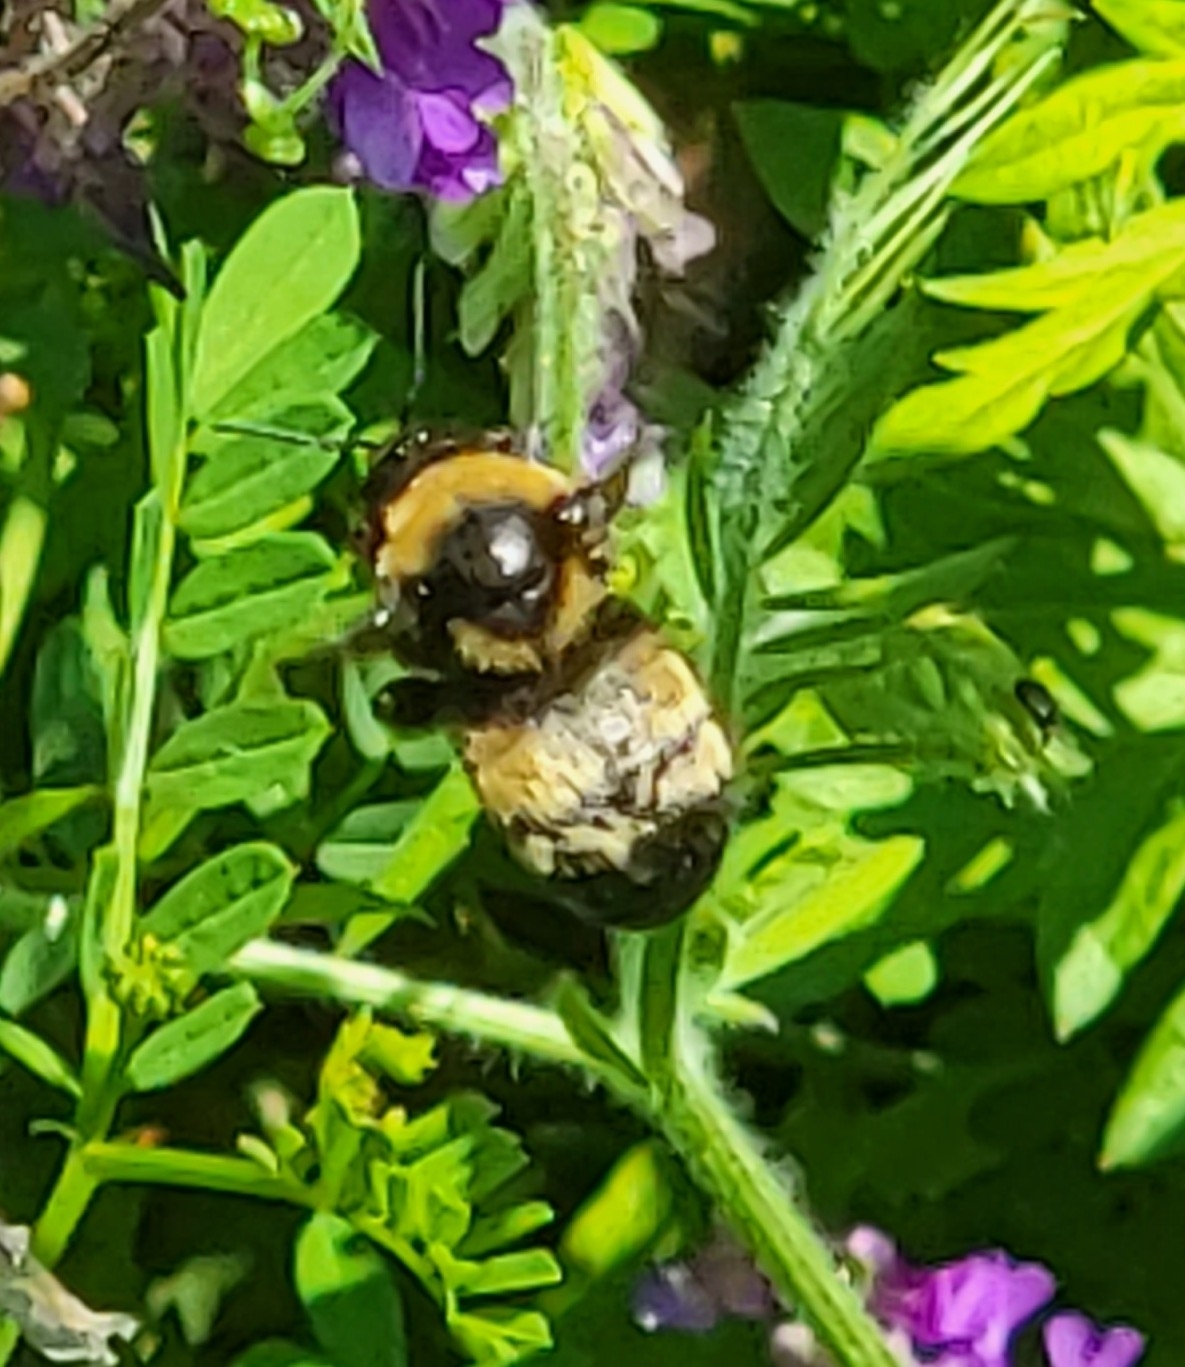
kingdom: Animalia
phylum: Arthropoda
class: Insecta
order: Hymenoptera
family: Apidae
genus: Bombus
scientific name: Bombus auricomus
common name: Black and gold bumble bee
